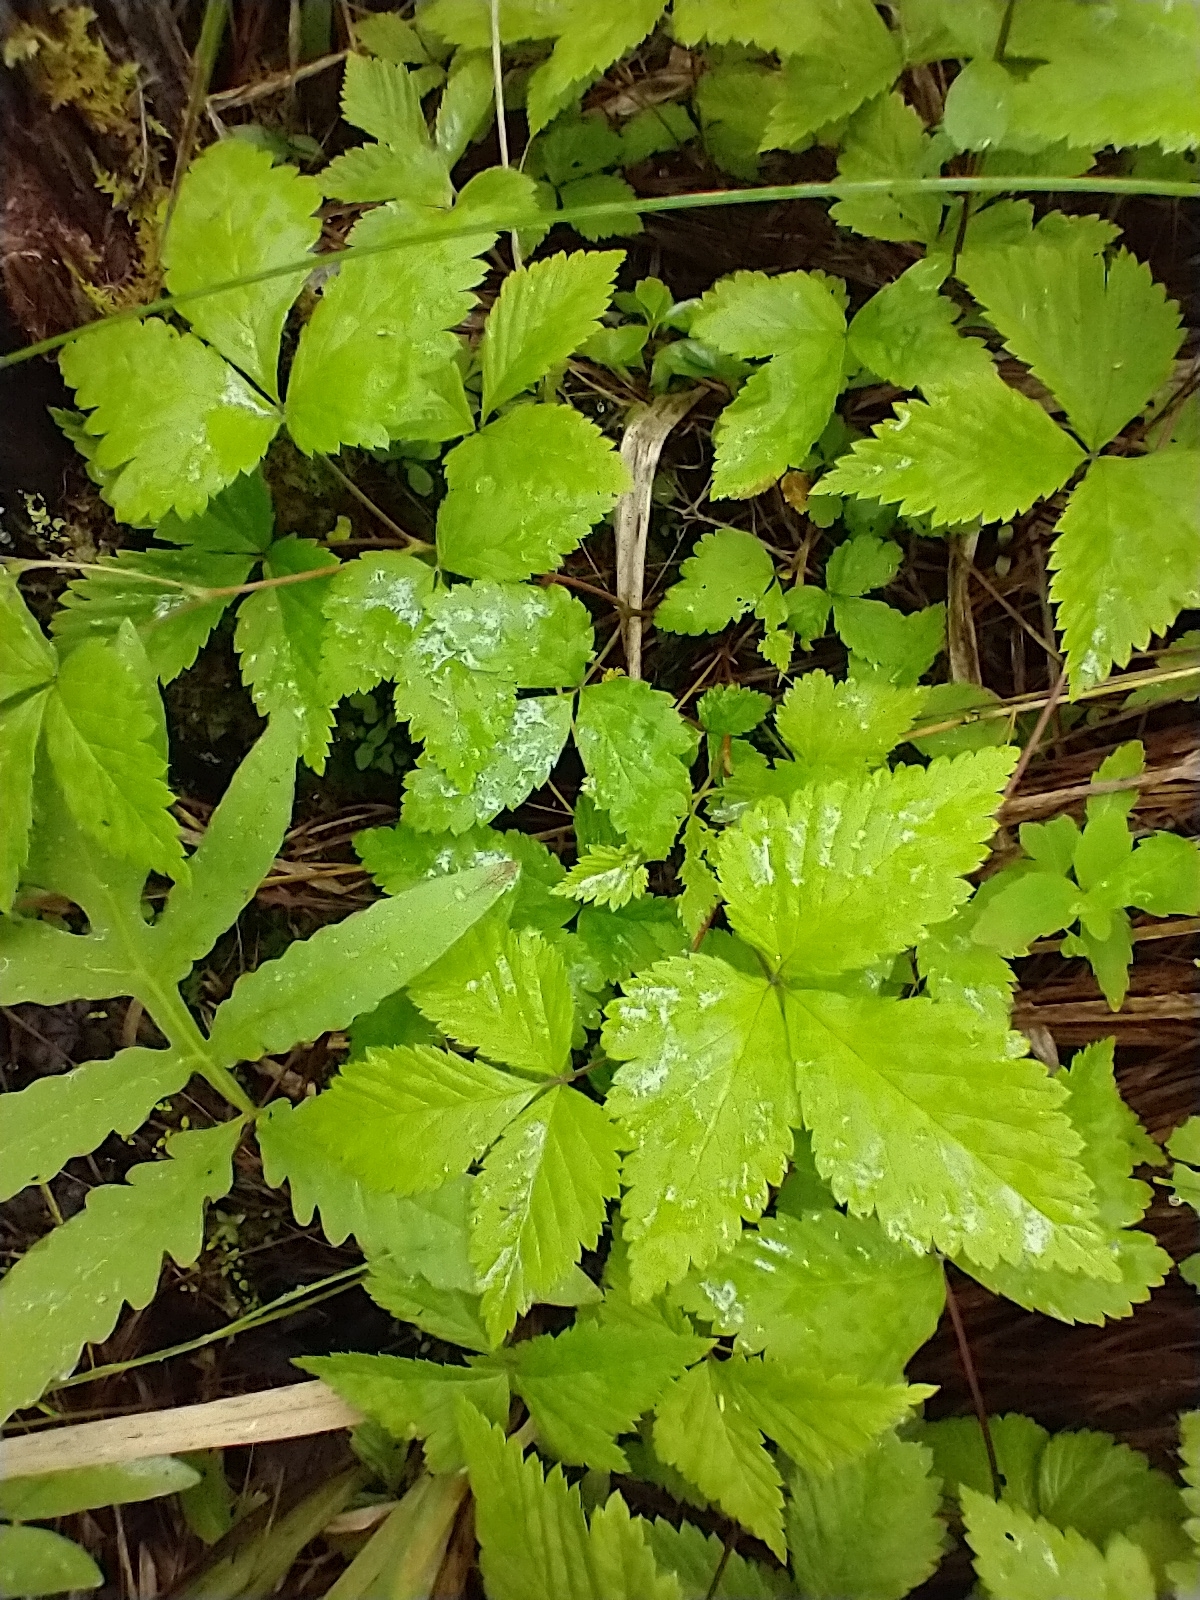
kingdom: Plantae
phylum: Tracheophyta
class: Magnoliopsida
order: Rosales
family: Rosaceae
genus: Rubus
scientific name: Rubus pubescens
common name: Dwarf raspberry
